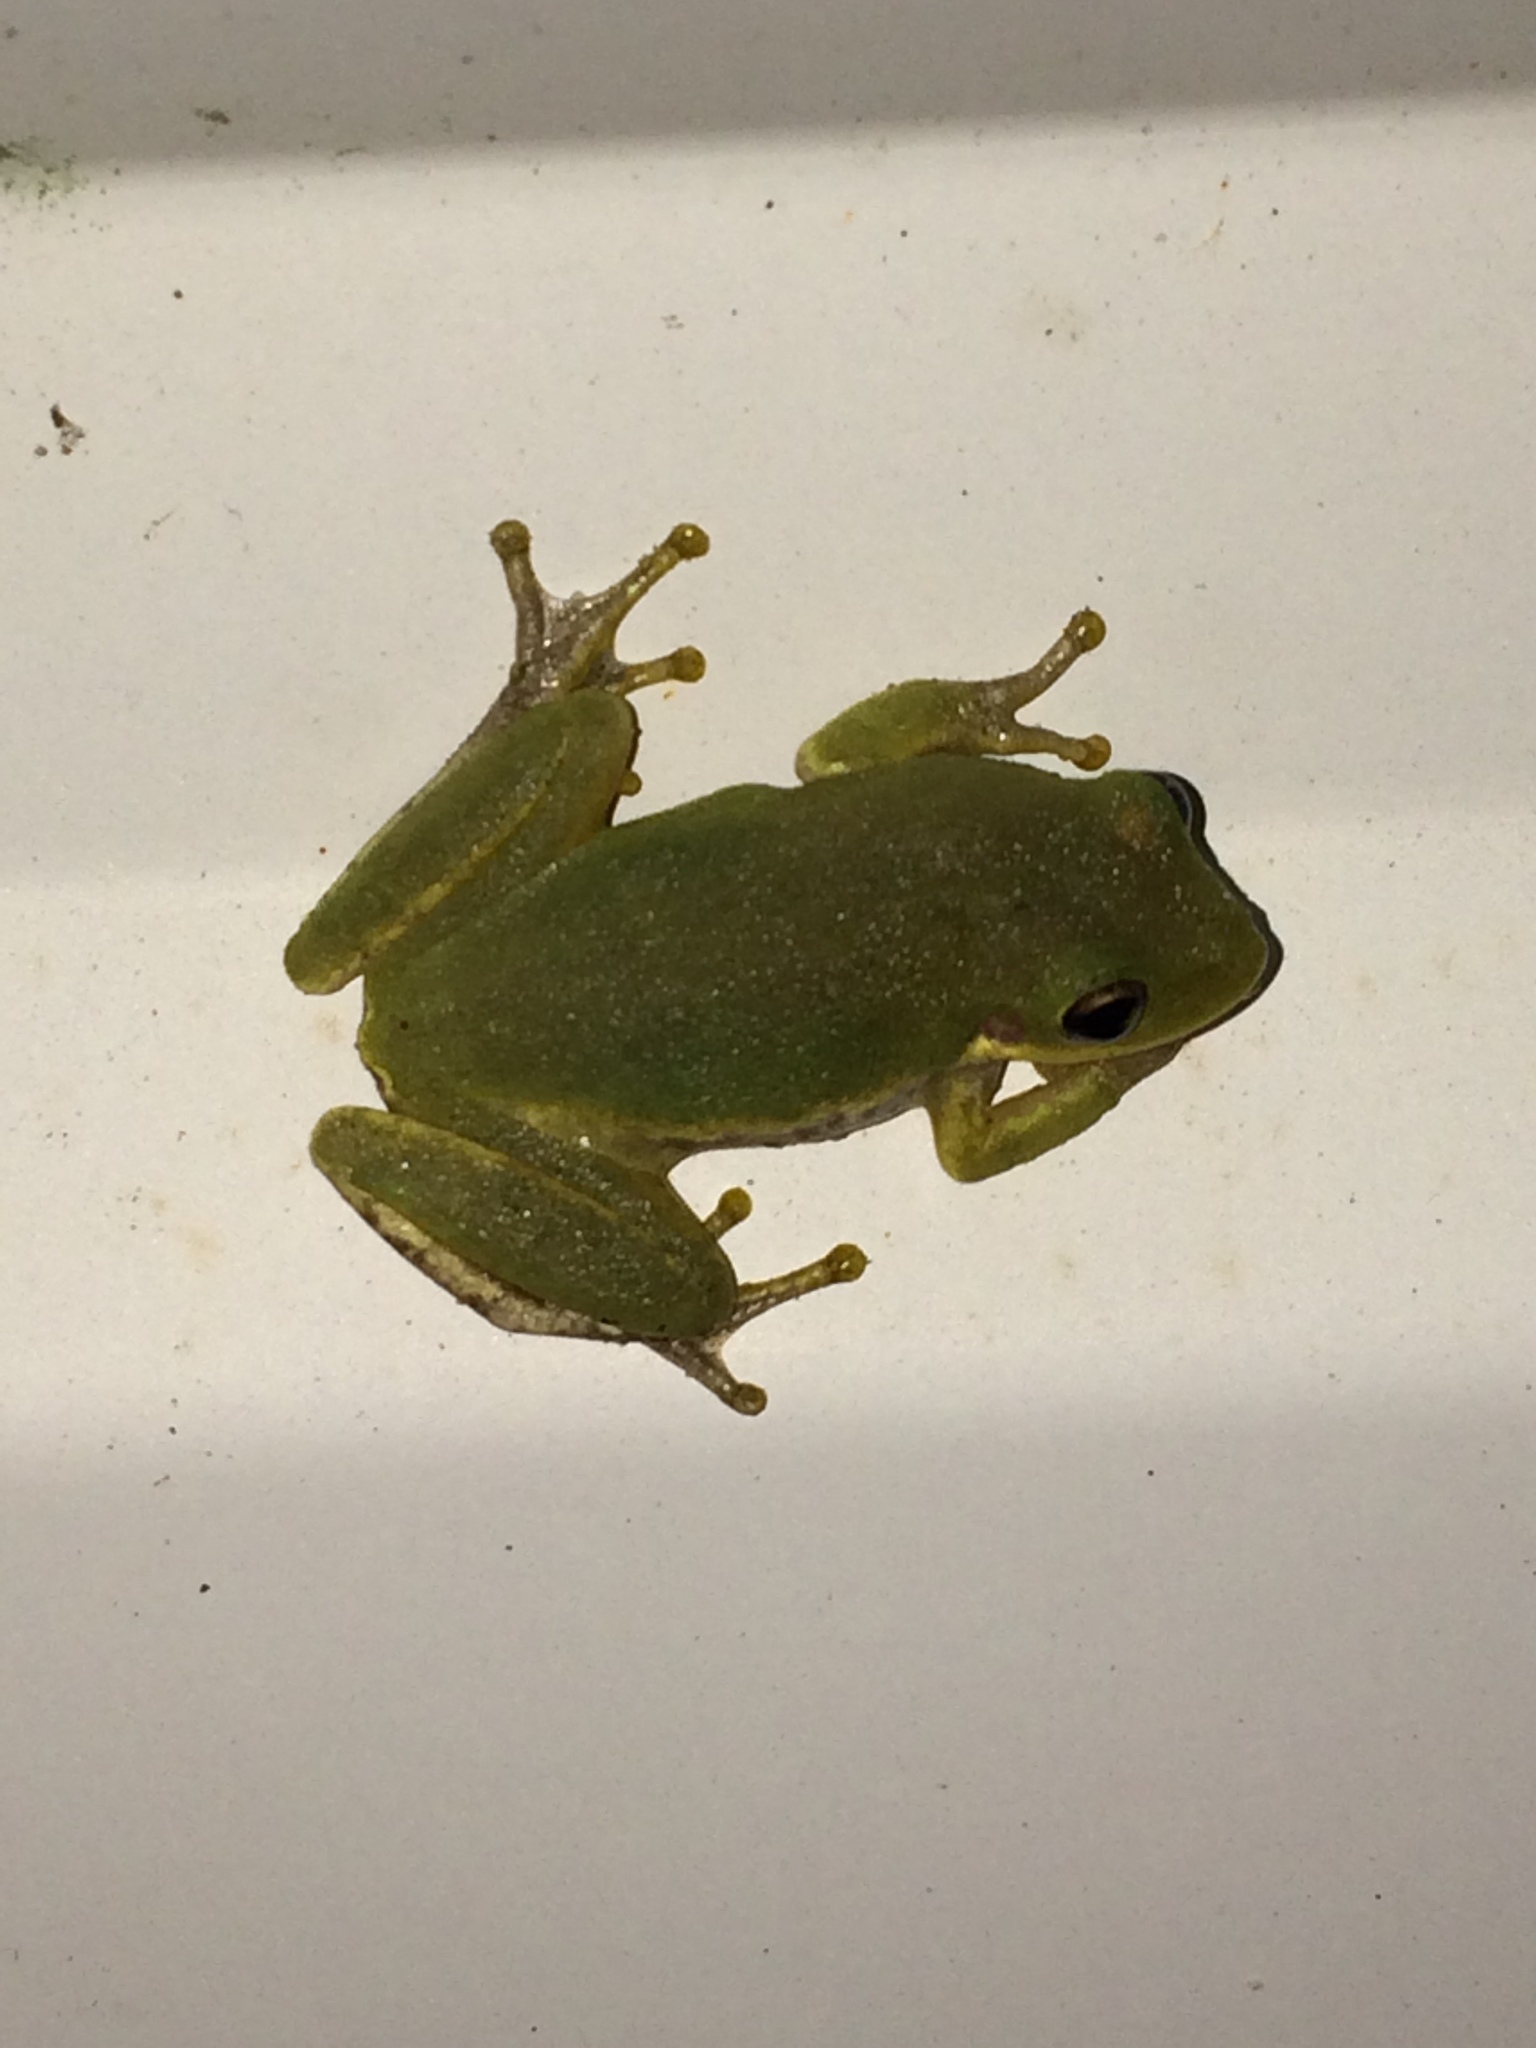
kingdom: Animalia
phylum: Chordata
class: Amphibia
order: Anura
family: Hylidae
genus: Dryophytes
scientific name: Dryophytes squirellus
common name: Squirrel treefrog
